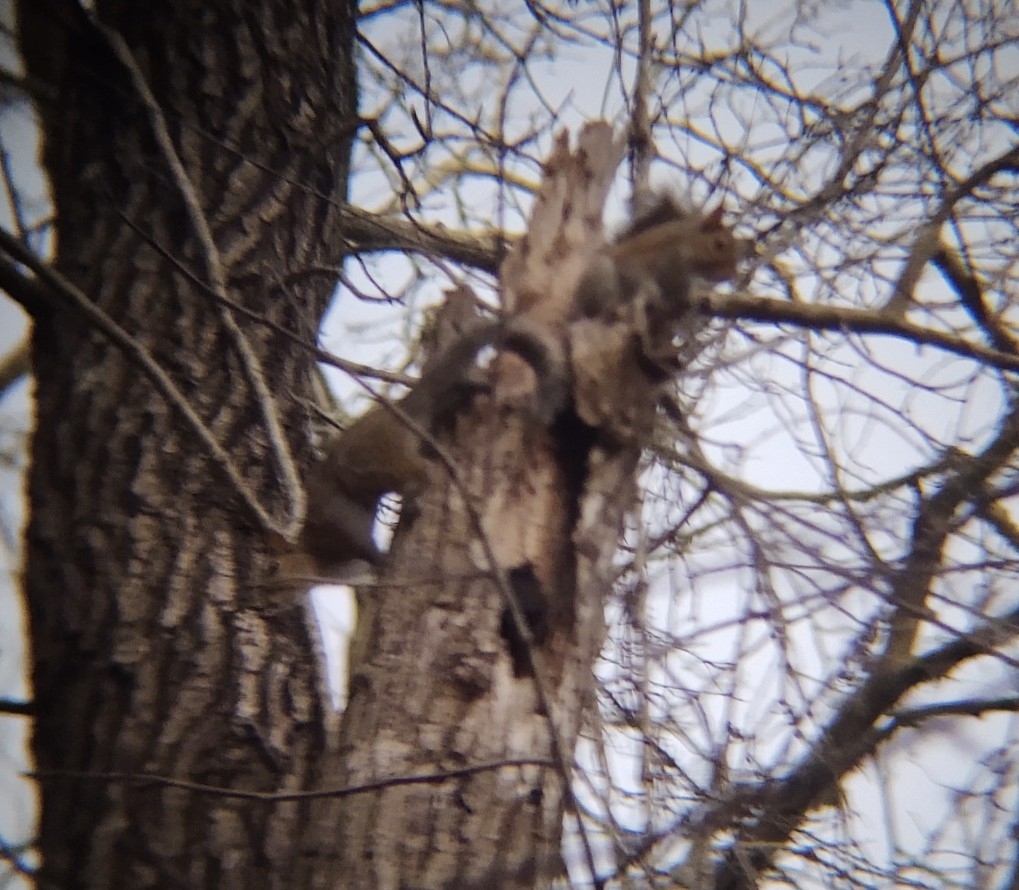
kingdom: Animalia
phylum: Chordata
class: Mammalia
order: Rodentia
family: Sciuridae
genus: Sciurus
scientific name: Sciurus carolinensis
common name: Eastern gray squirrel
